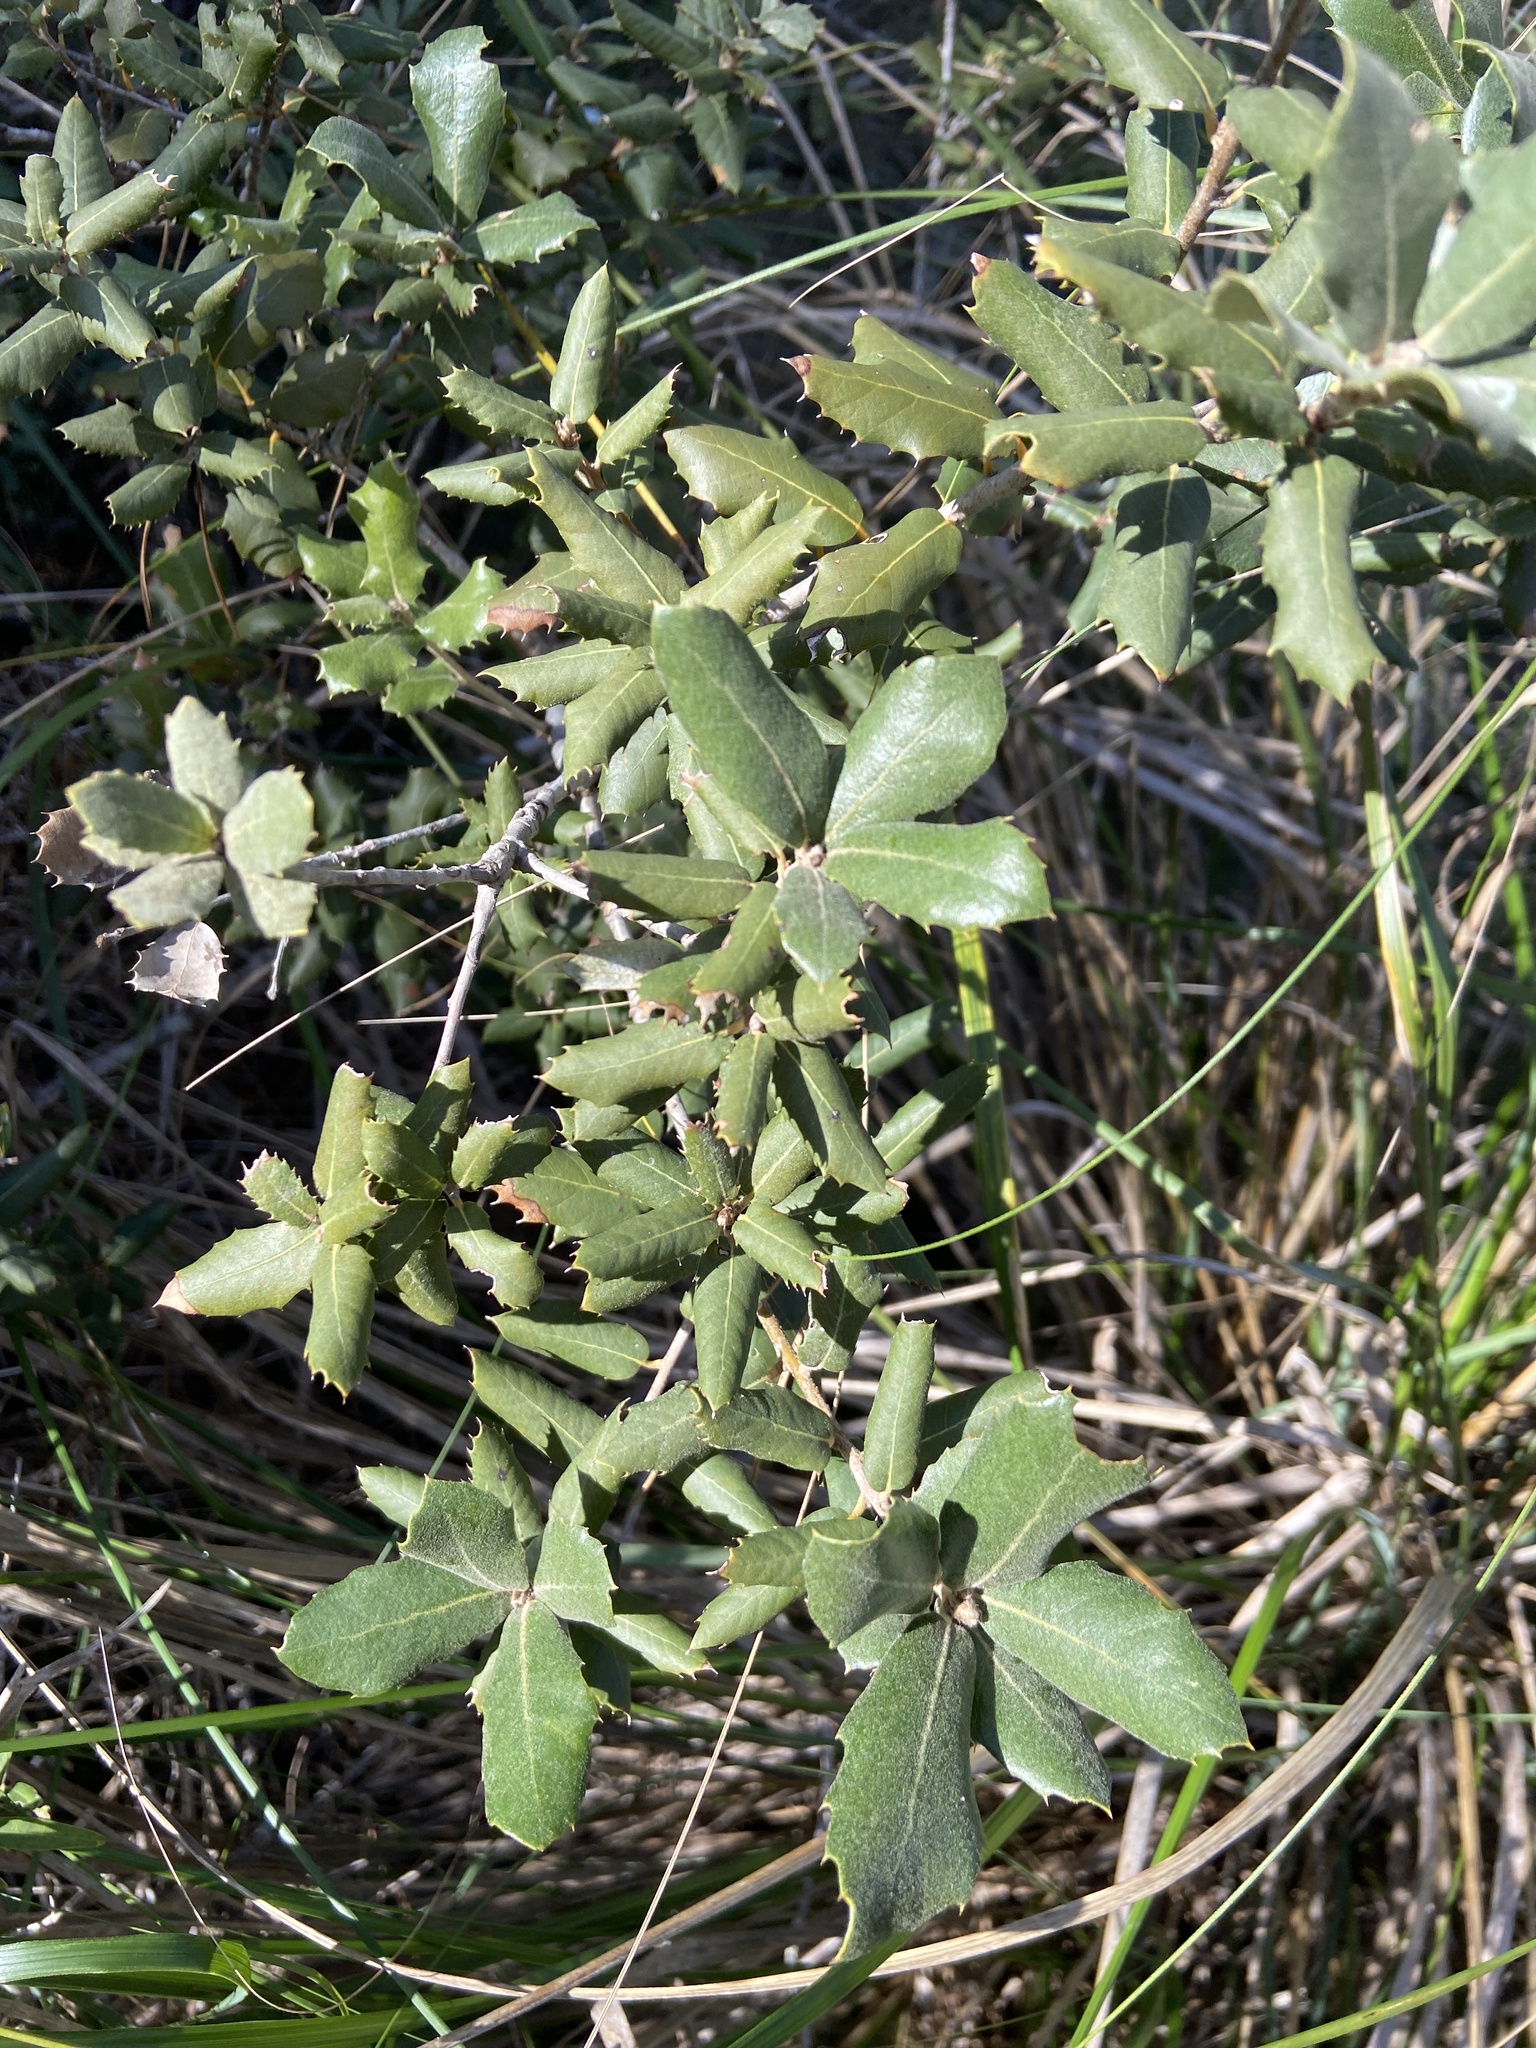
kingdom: Plantae
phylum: Tracheophyta
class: Magnoliopsida
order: Fagales
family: Fagaceae
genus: Quercus
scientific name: Quercus ilex
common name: Evergreen oak
